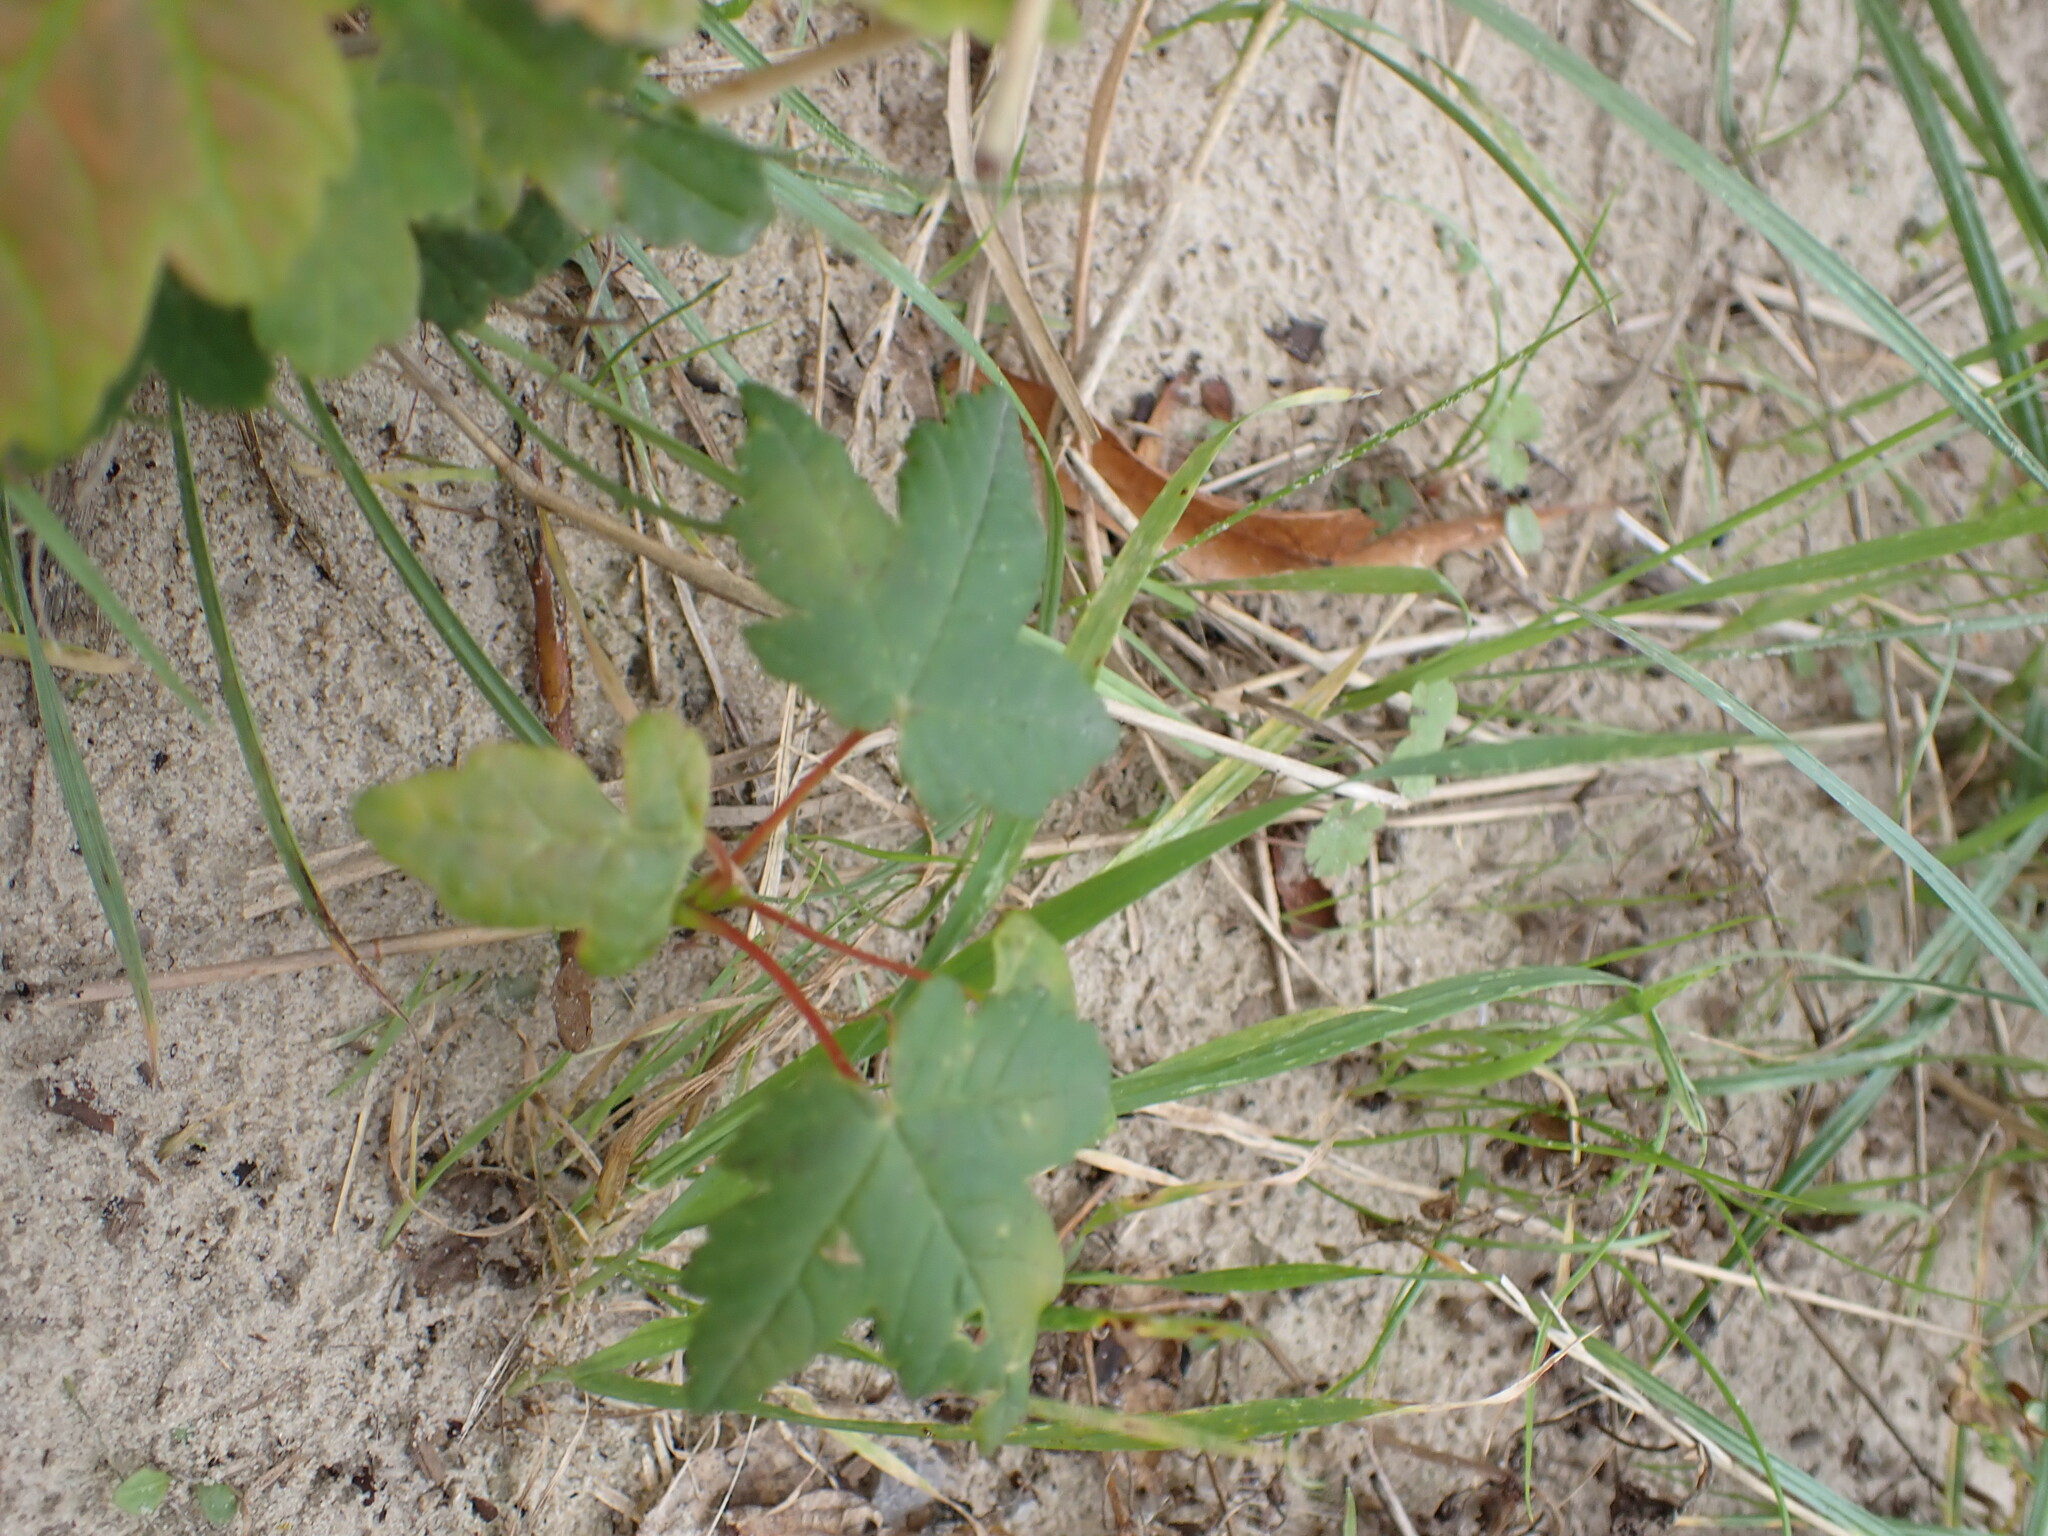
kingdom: Plantae
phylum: Tracheophyta
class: Magnoliopsida
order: Sapindales
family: Sapindaceae
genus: Acer
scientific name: Acer pseudoplatanus
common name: Sycamore
